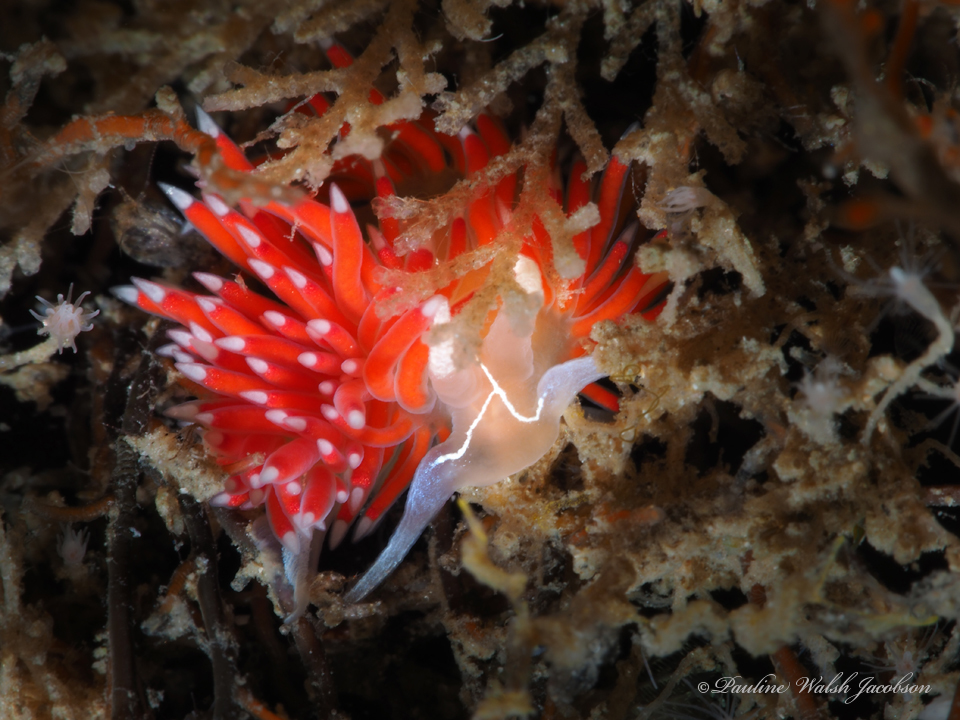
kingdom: Animalia
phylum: Mollusca
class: Gastropoda
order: Nudibranchia
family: Coryphellidae
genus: Coryphella
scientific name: Coryphella verta
